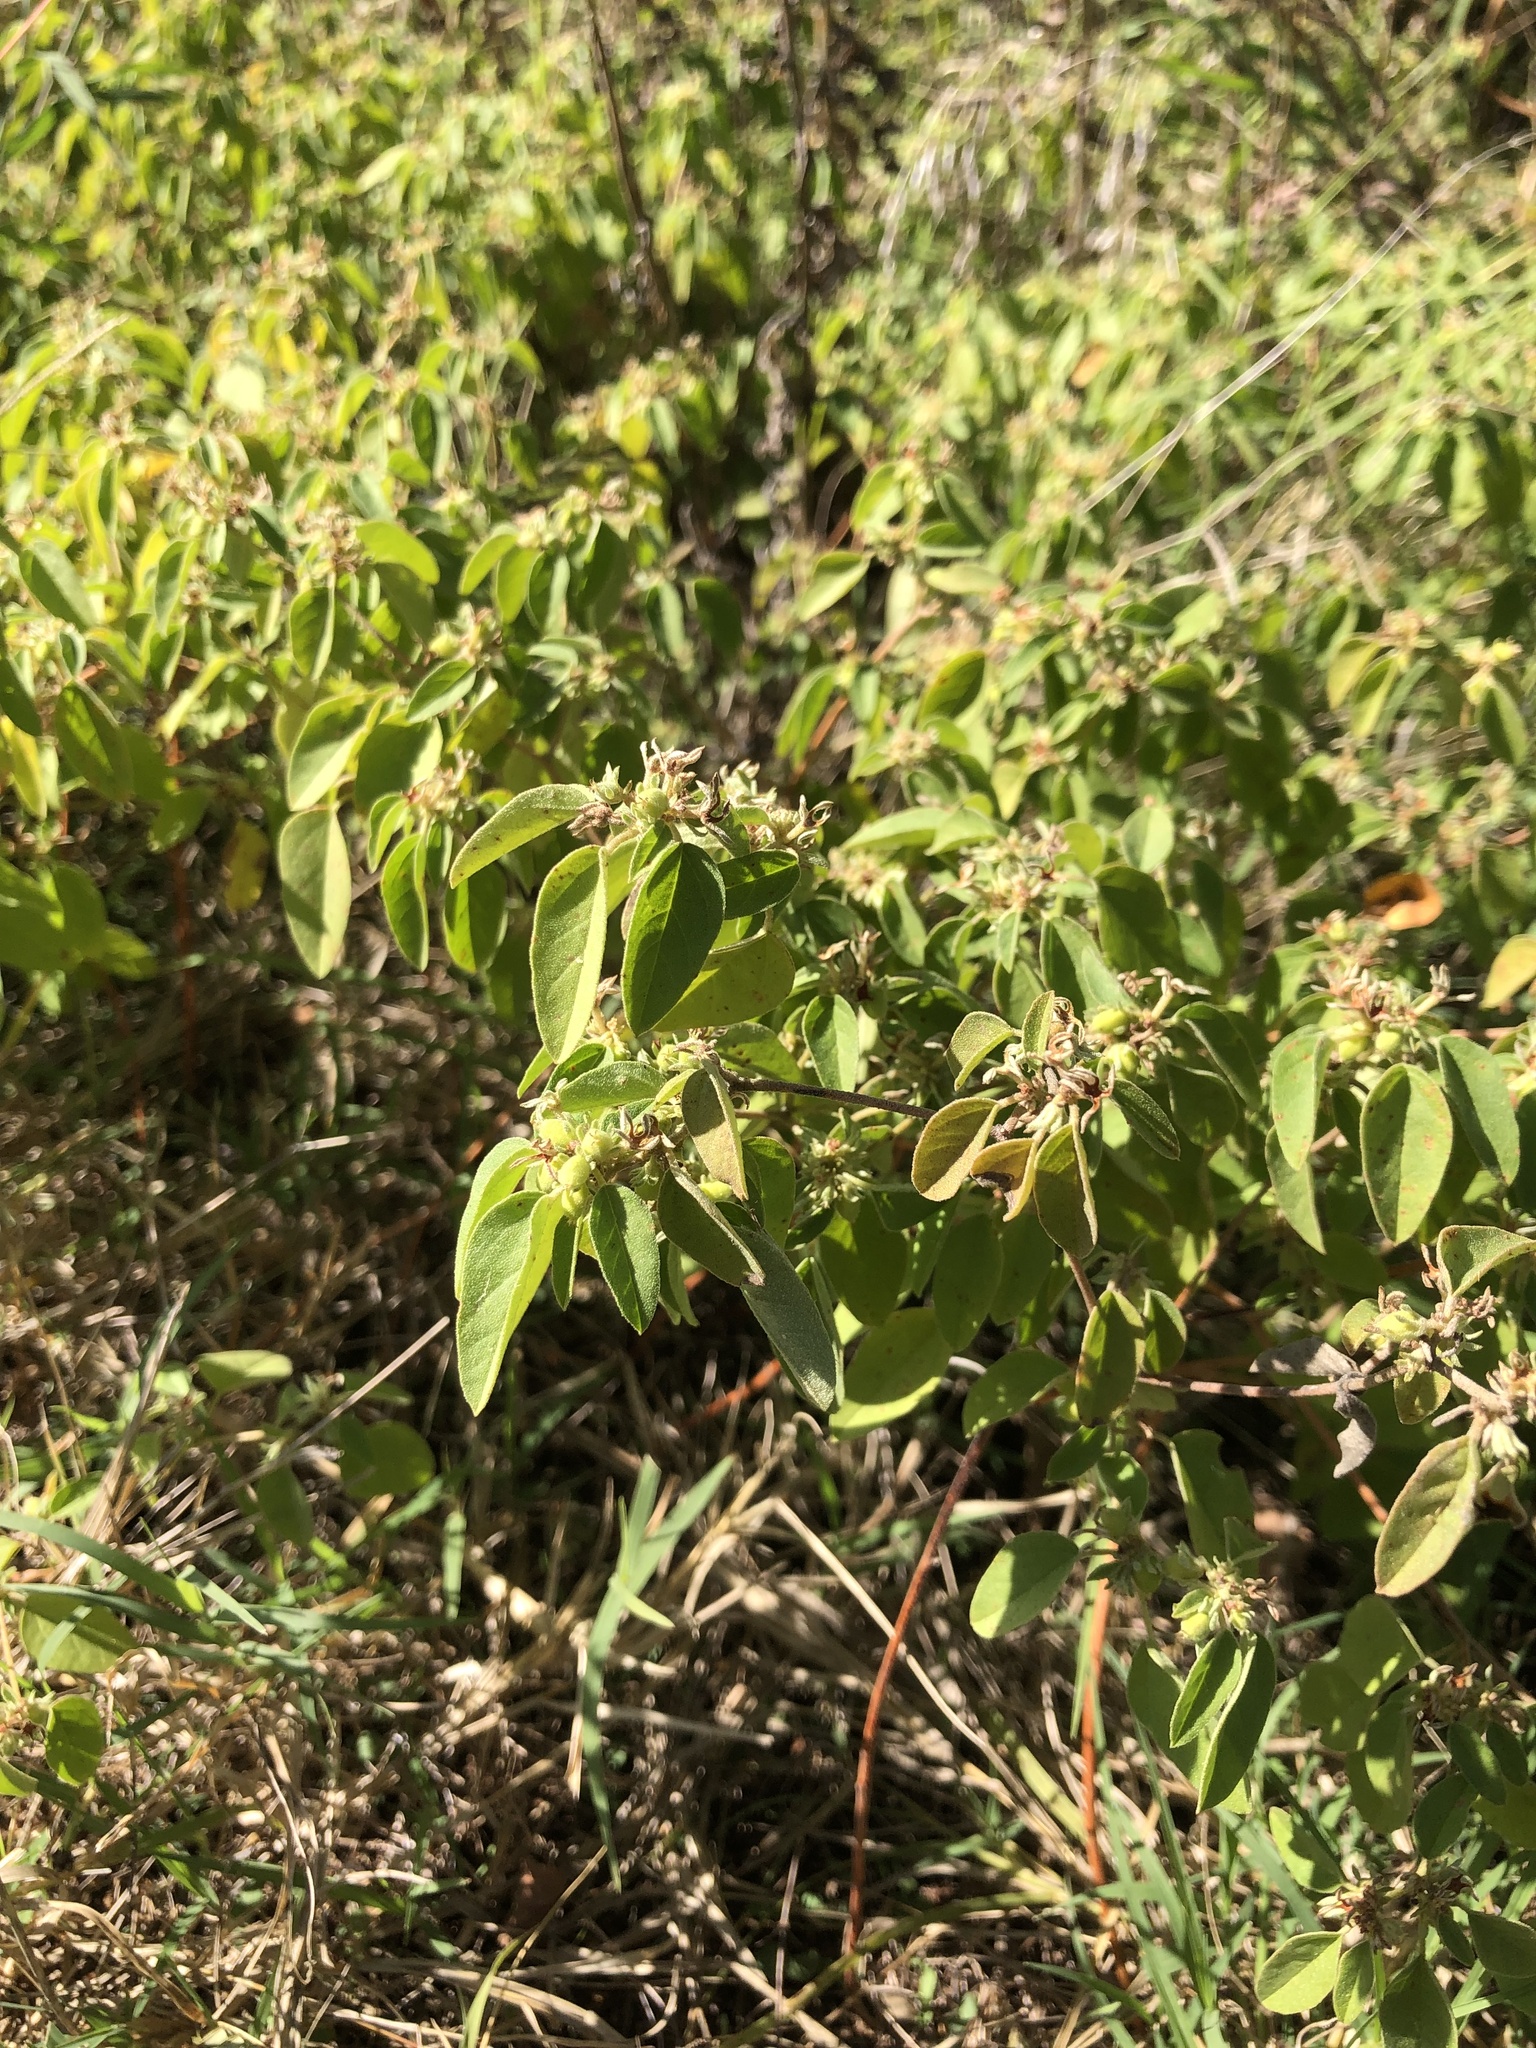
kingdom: Plantae
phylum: Tracheophyta
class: Magnoliopsida
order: Malpighiales
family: Euphorbiaceae
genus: Croton
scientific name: Croton monanthogynus
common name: One-seed croton
